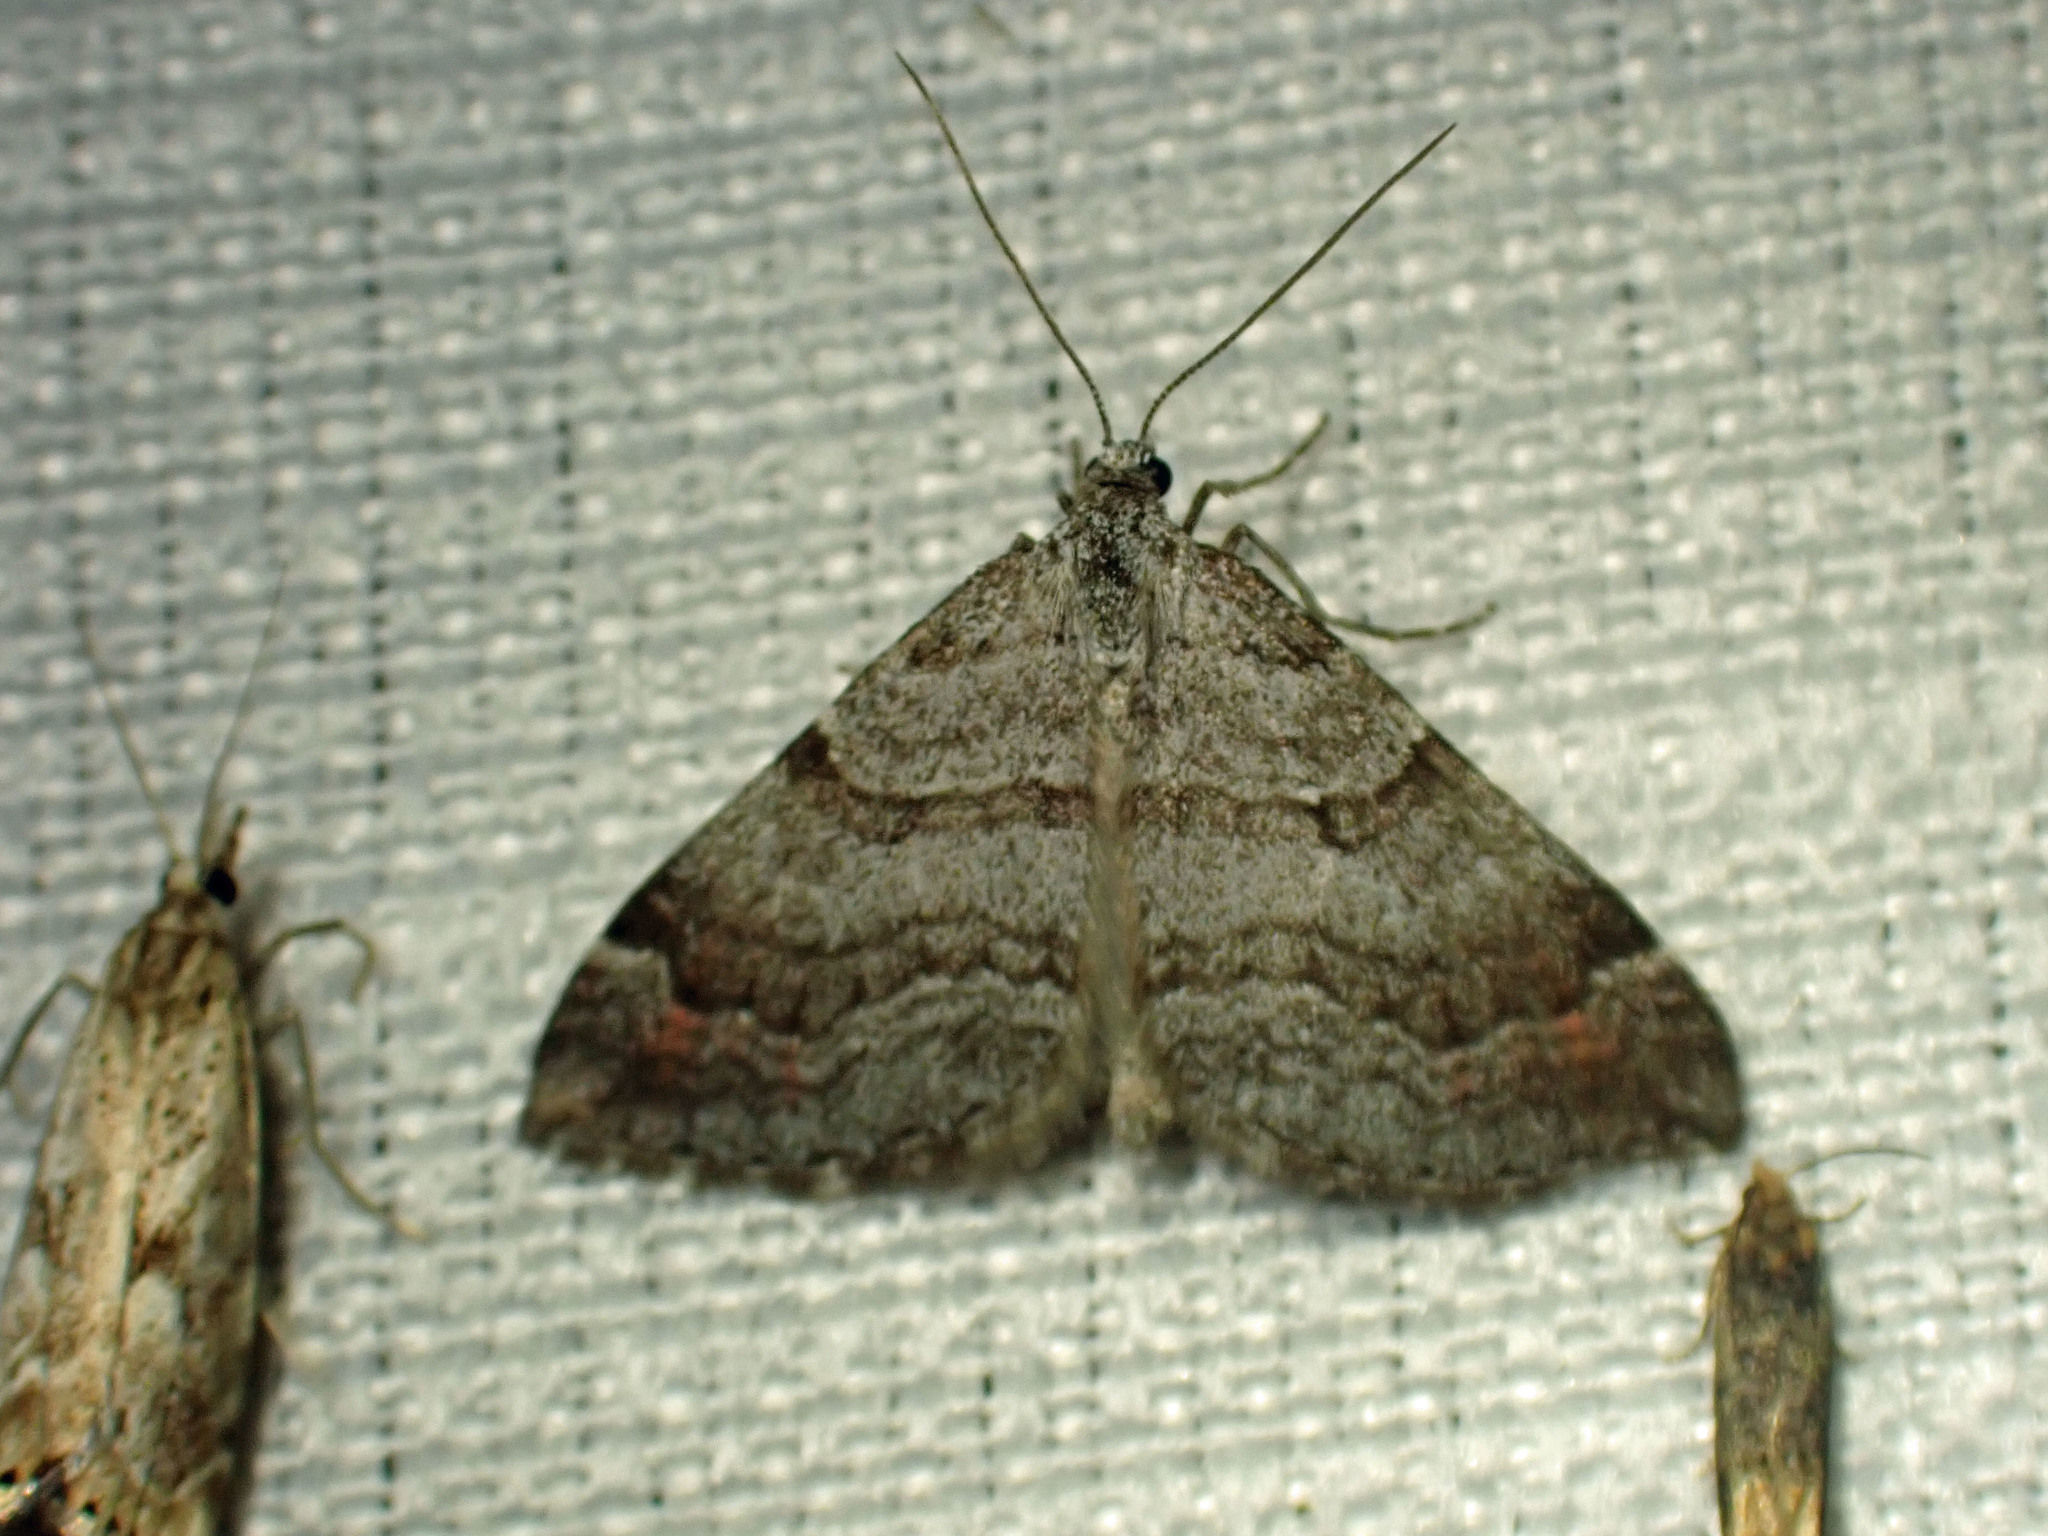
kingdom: Animalia
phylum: Arthropoda
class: Insecta
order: Lepidoptera
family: Geometridae
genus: Carsia
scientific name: Carsia sororiata
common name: Manchester treble-bar
